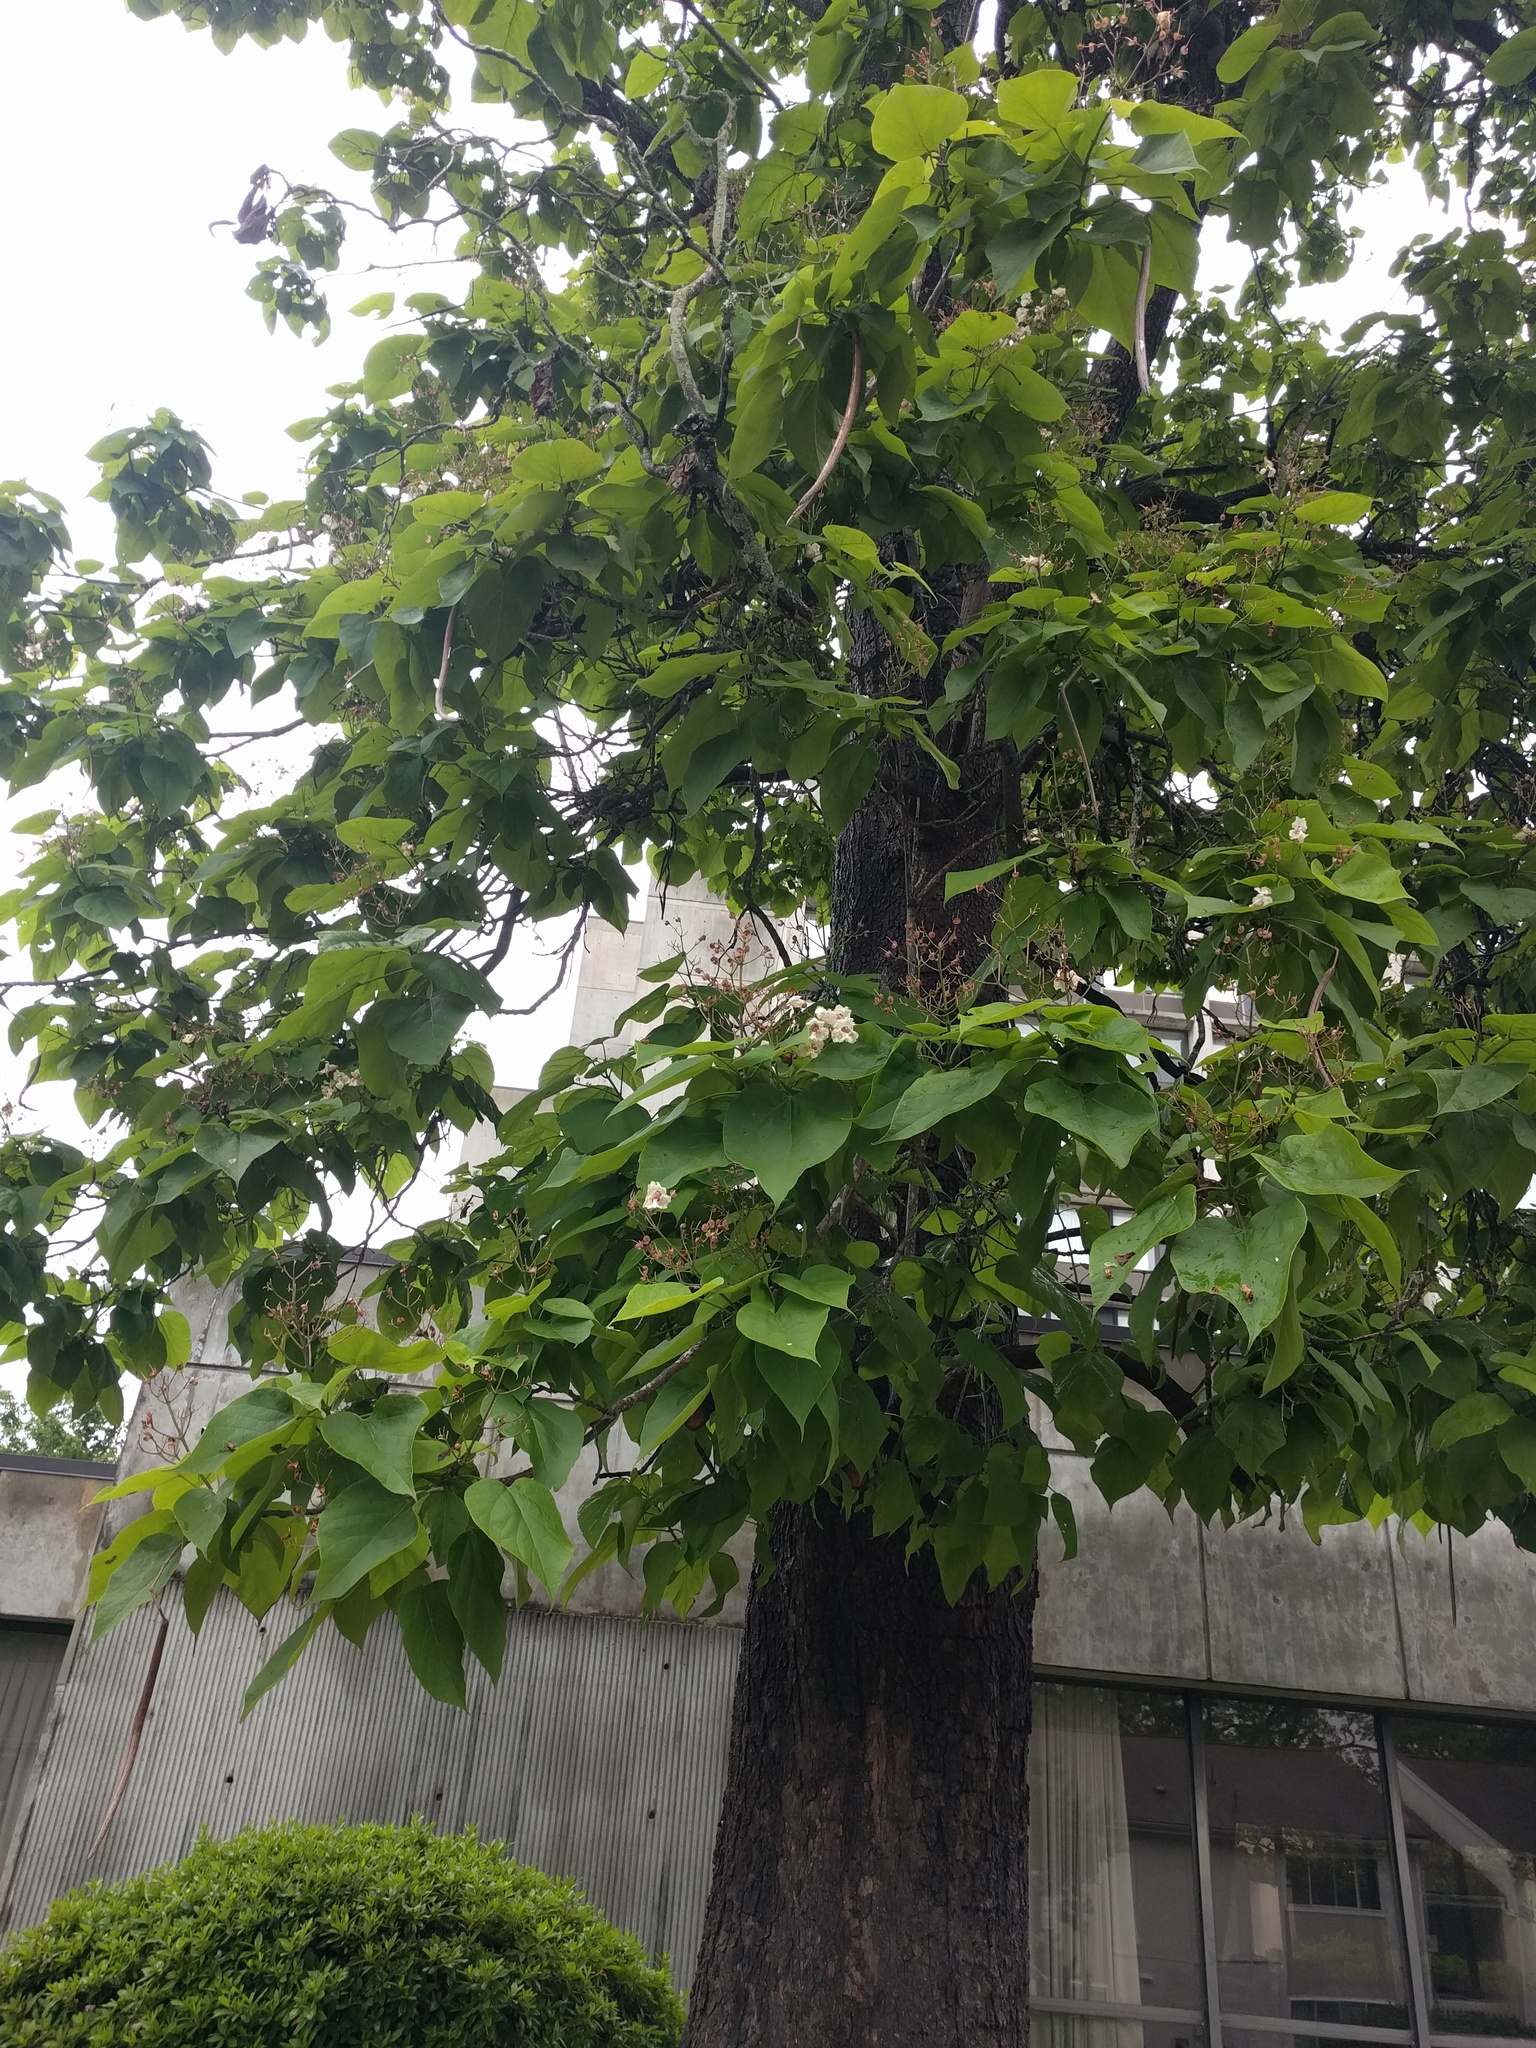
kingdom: Plantae
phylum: Tracheophyta
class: Magnoliopsida
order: Lamiales
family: Bignoniaceae
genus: Catalpa
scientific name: Catalpa bignonioides
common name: Southern catalpa
